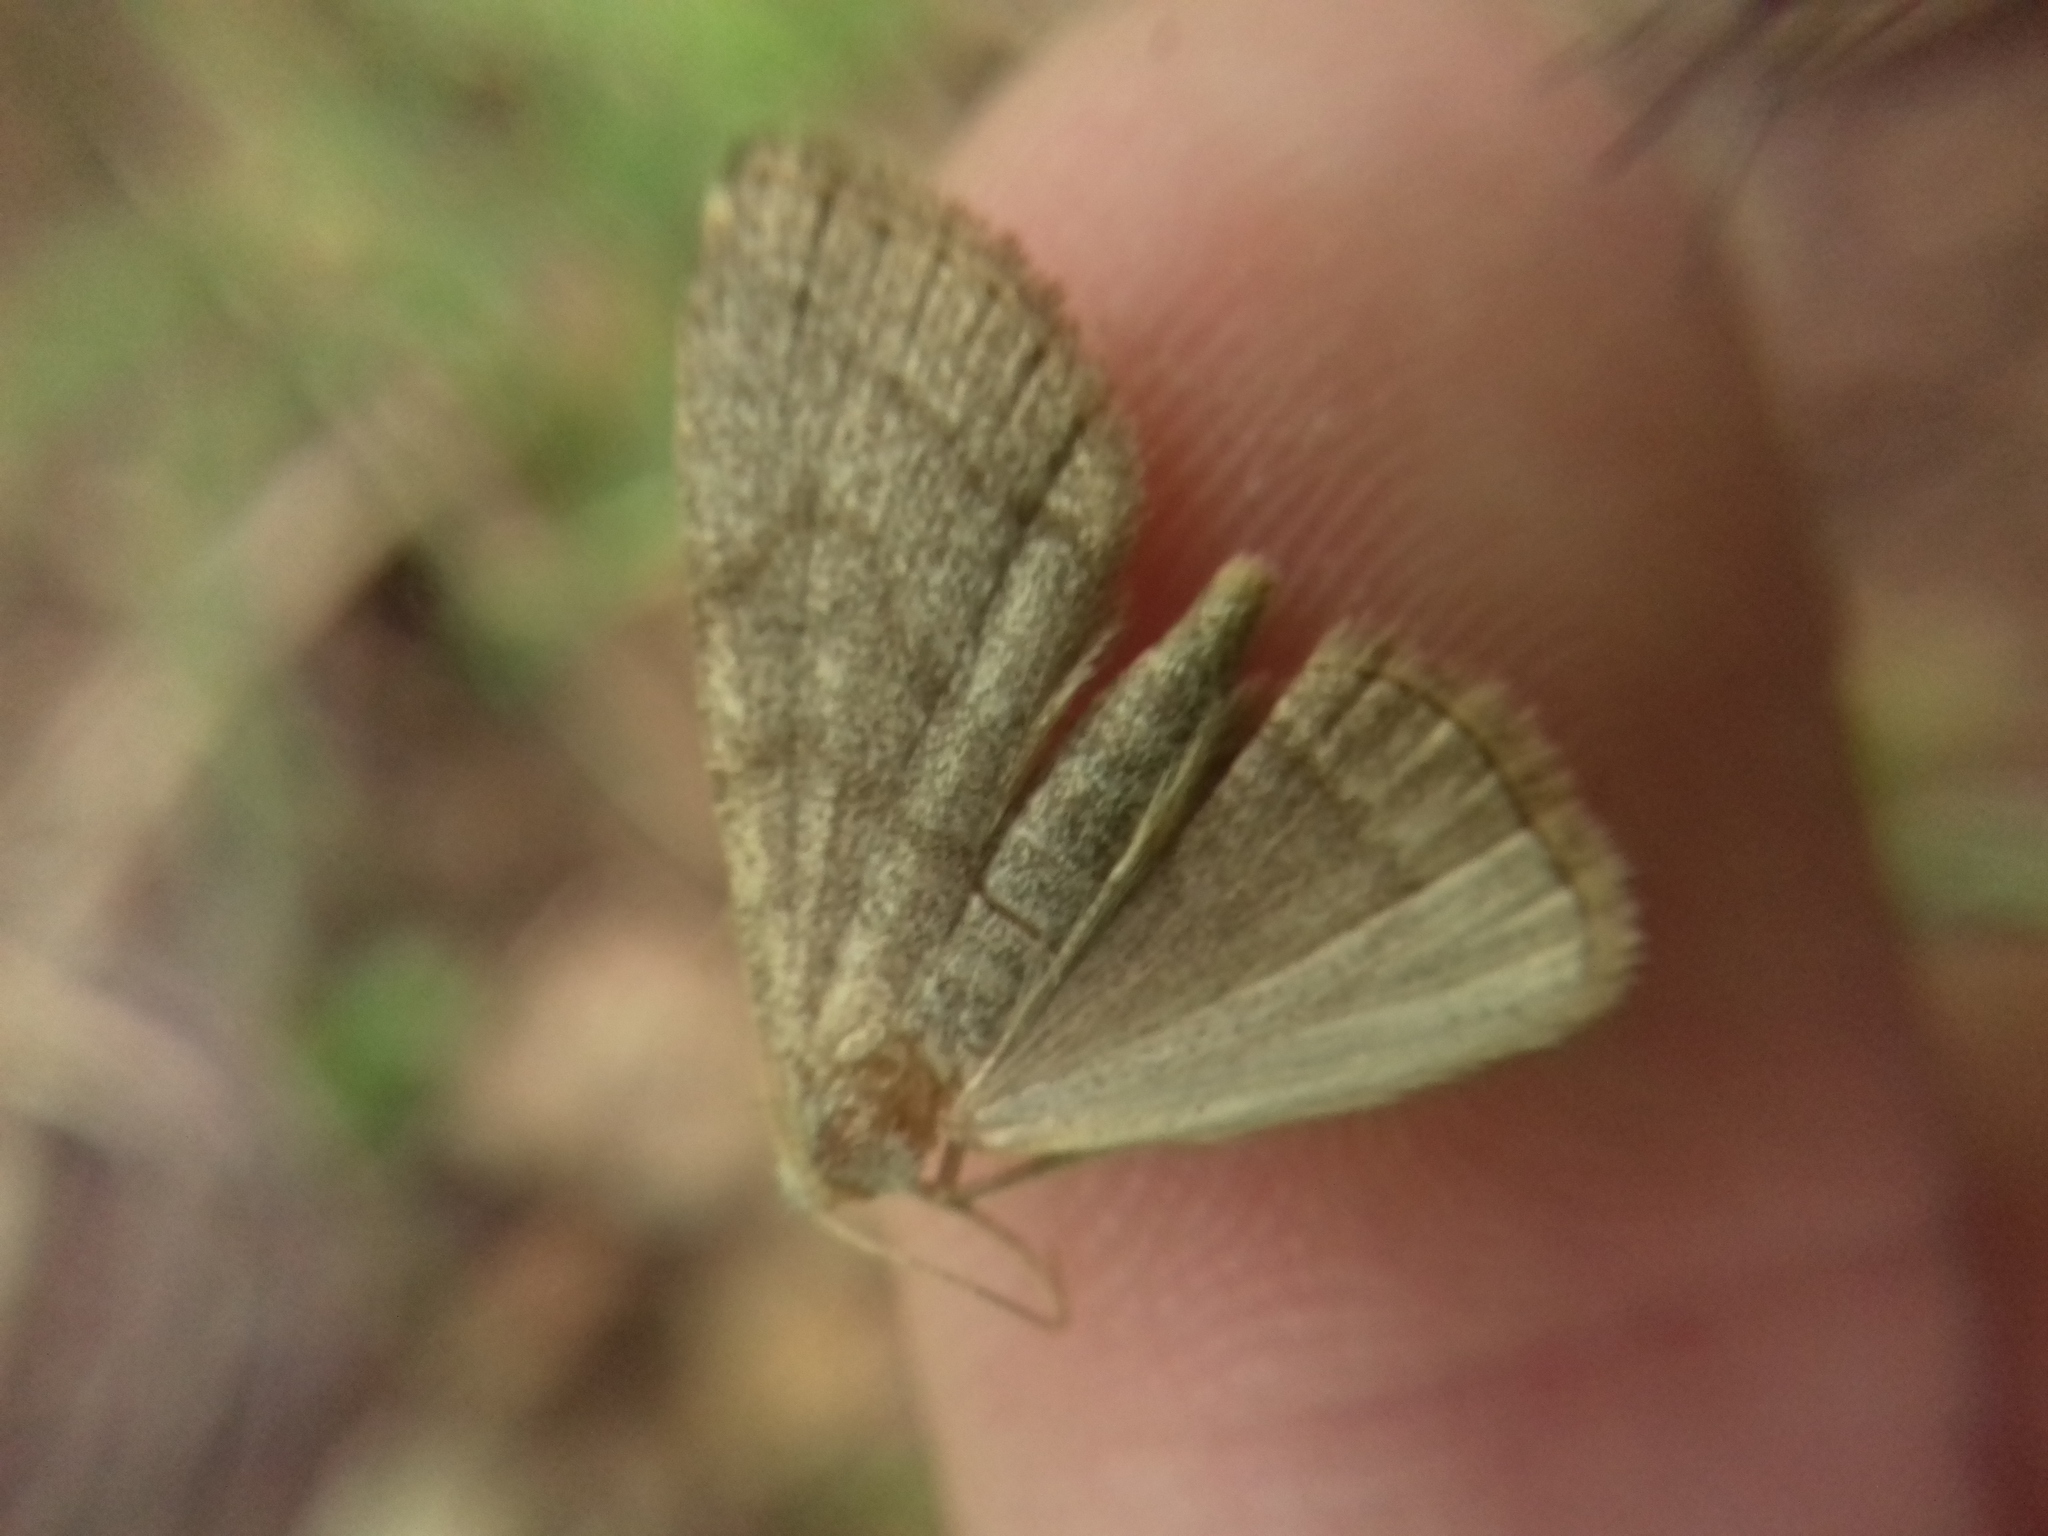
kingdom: Animalia
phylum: Arthropoda
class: Insecta
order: Lepidoptera
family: Erebidae
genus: Pechipogo
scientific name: Pechipogo strigilata
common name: Common fan-foot
